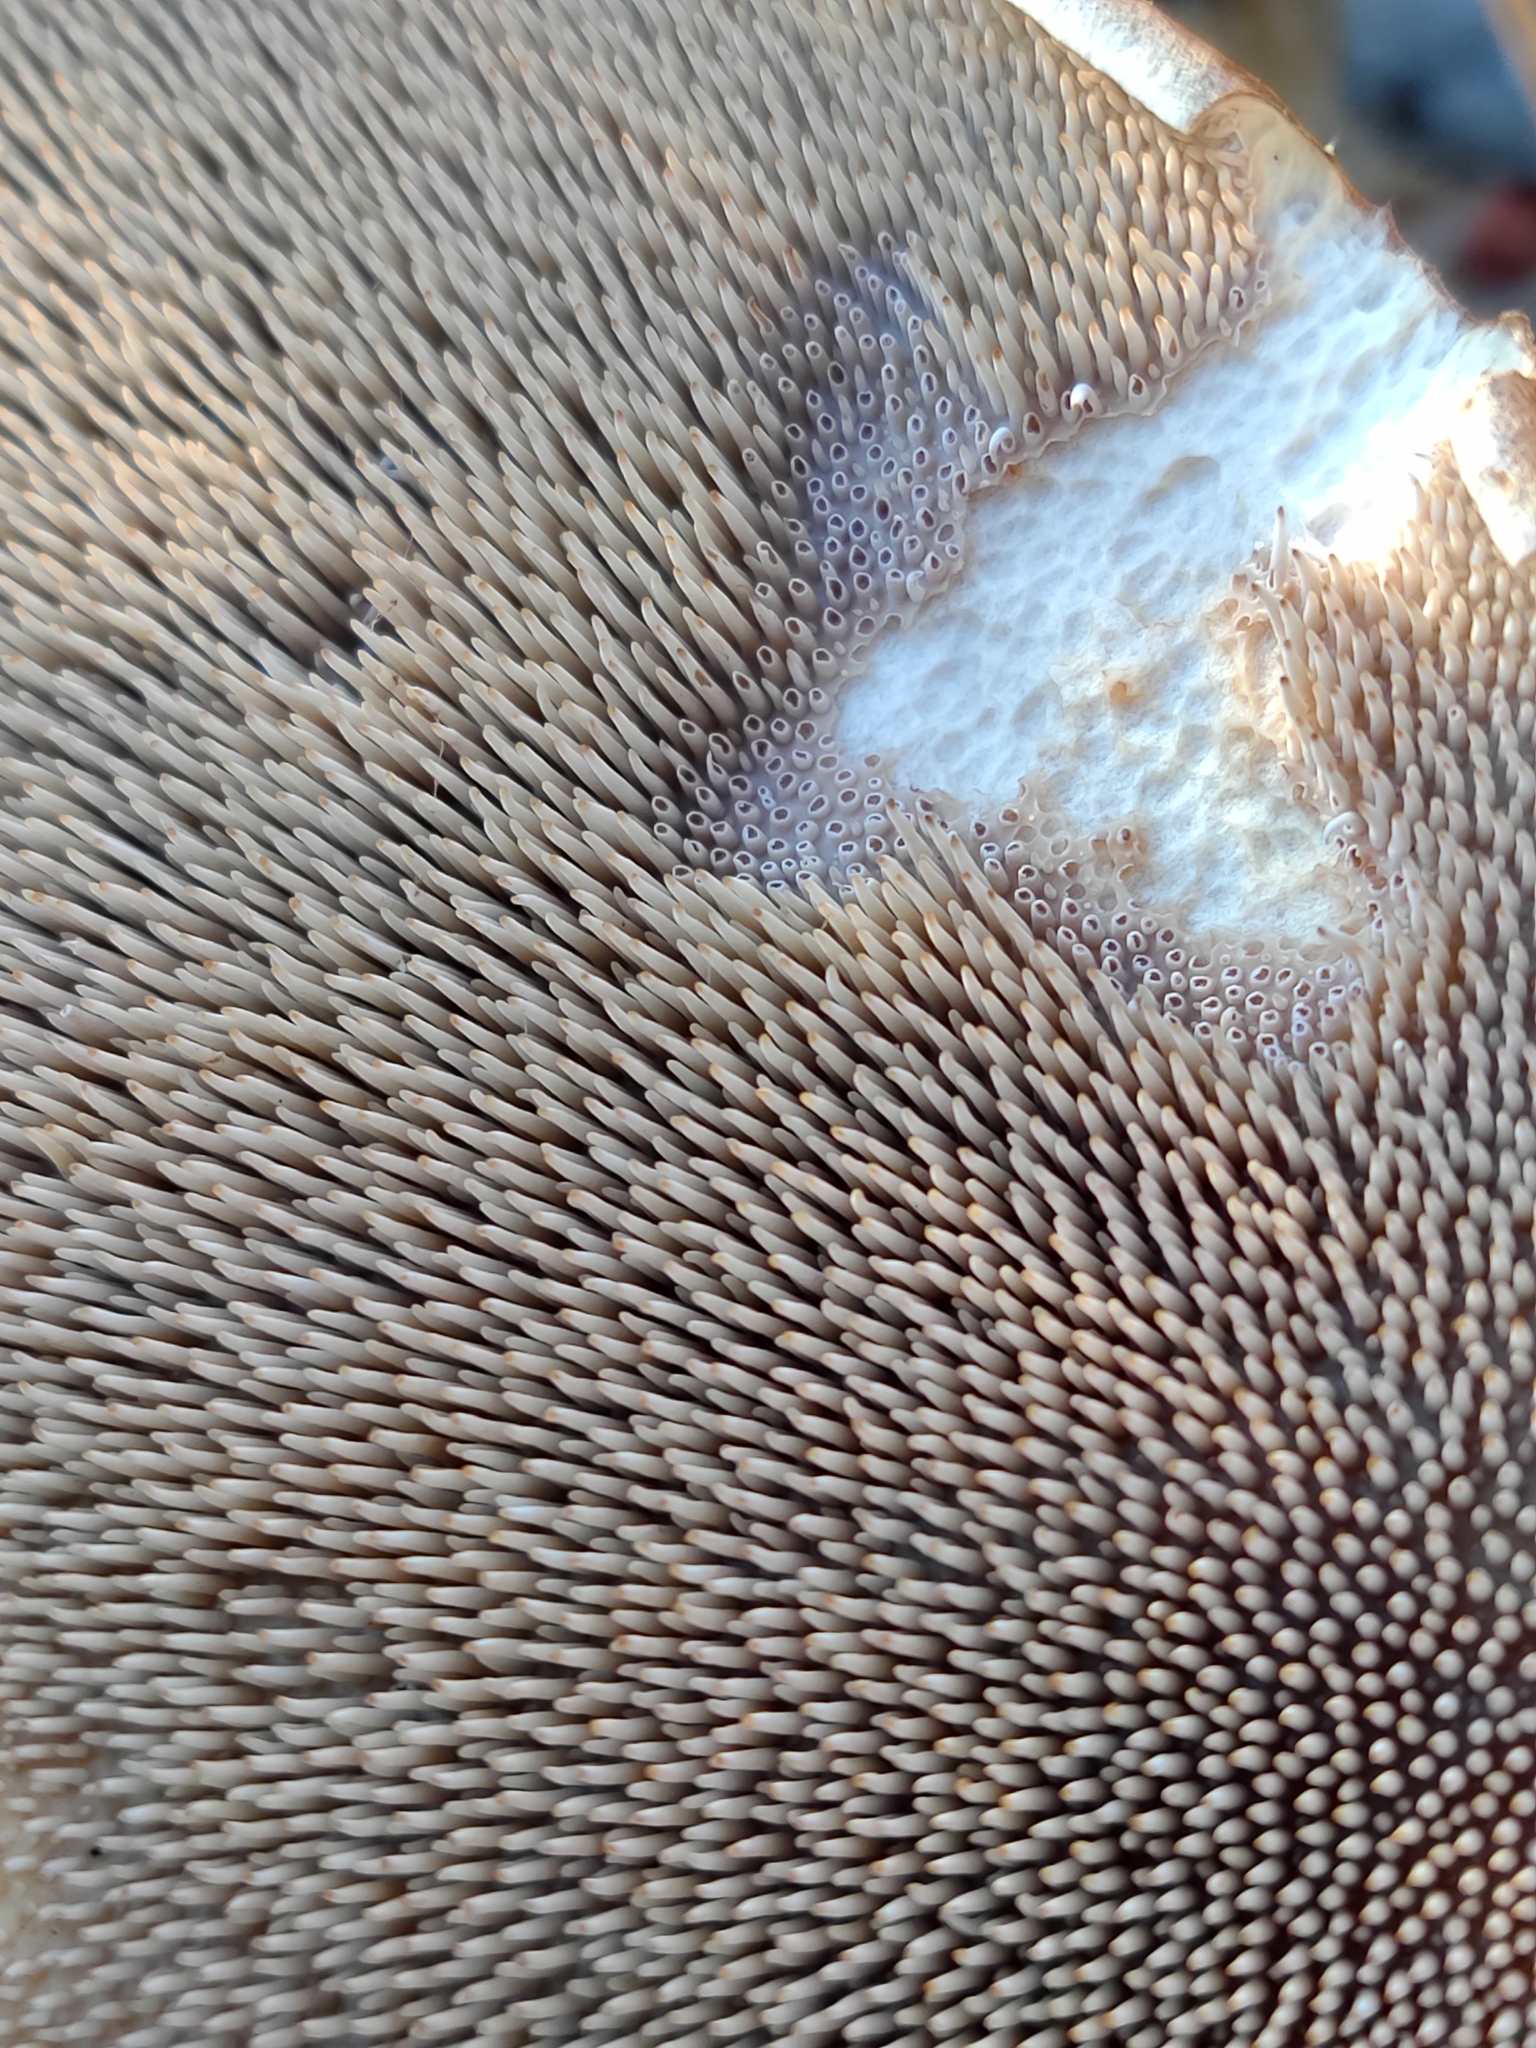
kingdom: Fungi
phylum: Basidiomycota
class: Agaricomycetes
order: Thelephorales
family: Bankeraceae
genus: Sarcodon
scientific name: Sarcodon squamosus
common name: Scaly tooth
